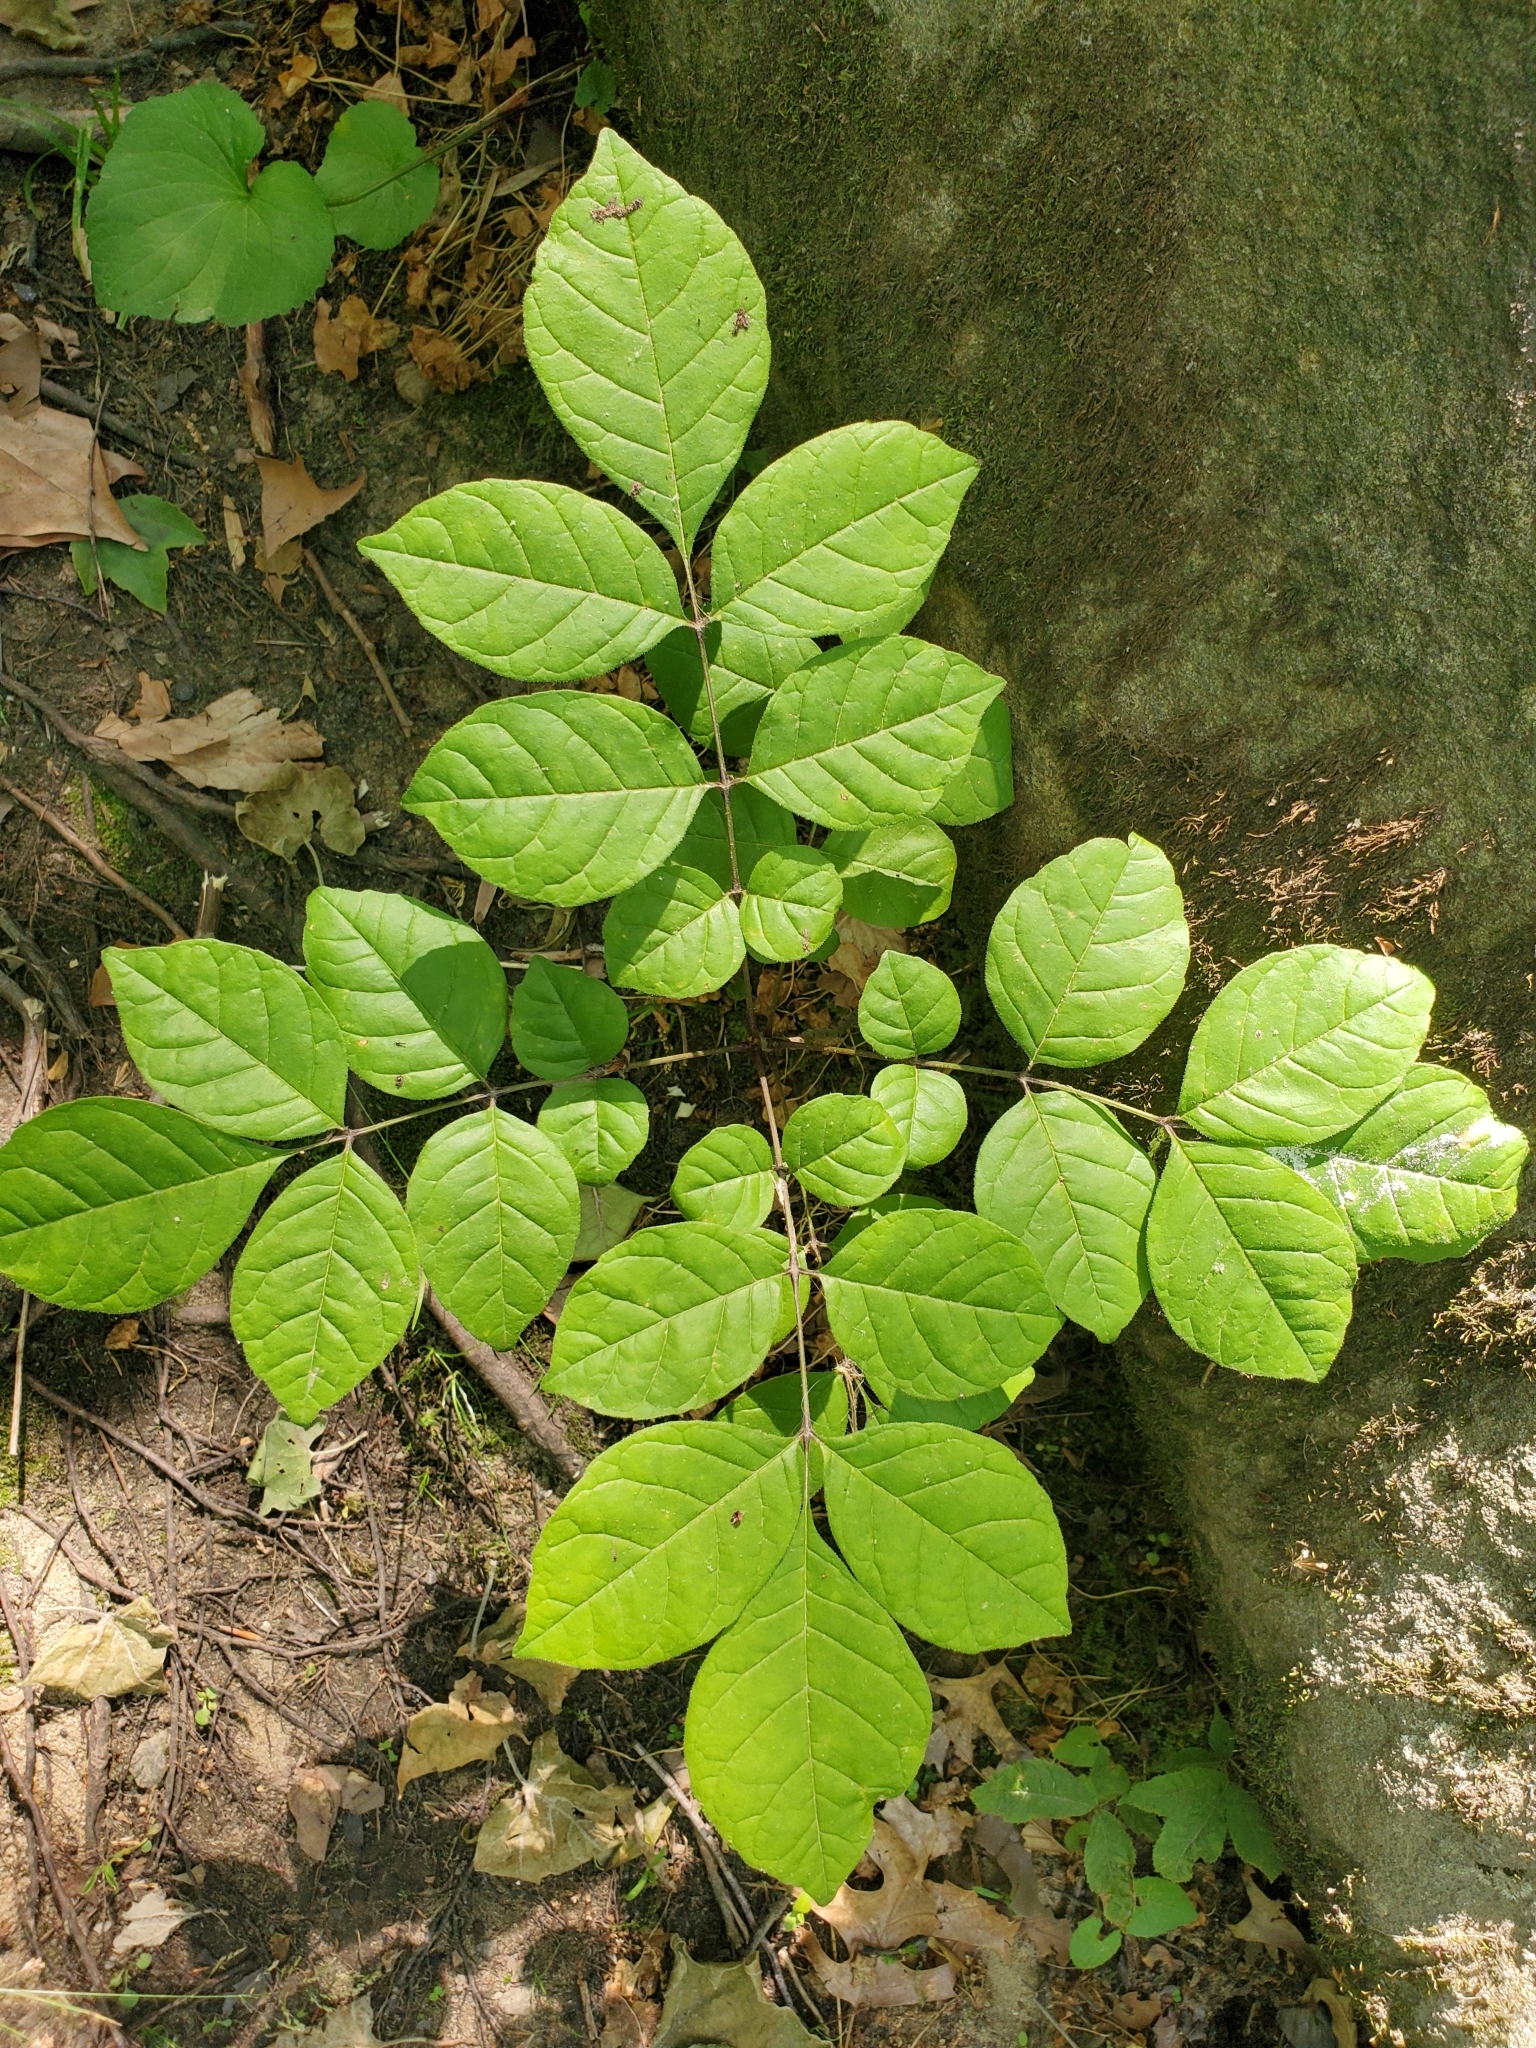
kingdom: Plantae
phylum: Tracheophyta
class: Magnoliopsida
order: Lamiales
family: Oleaceae
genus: Fraxinus
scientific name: Fraxinus pennsylvanica
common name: Green ash
